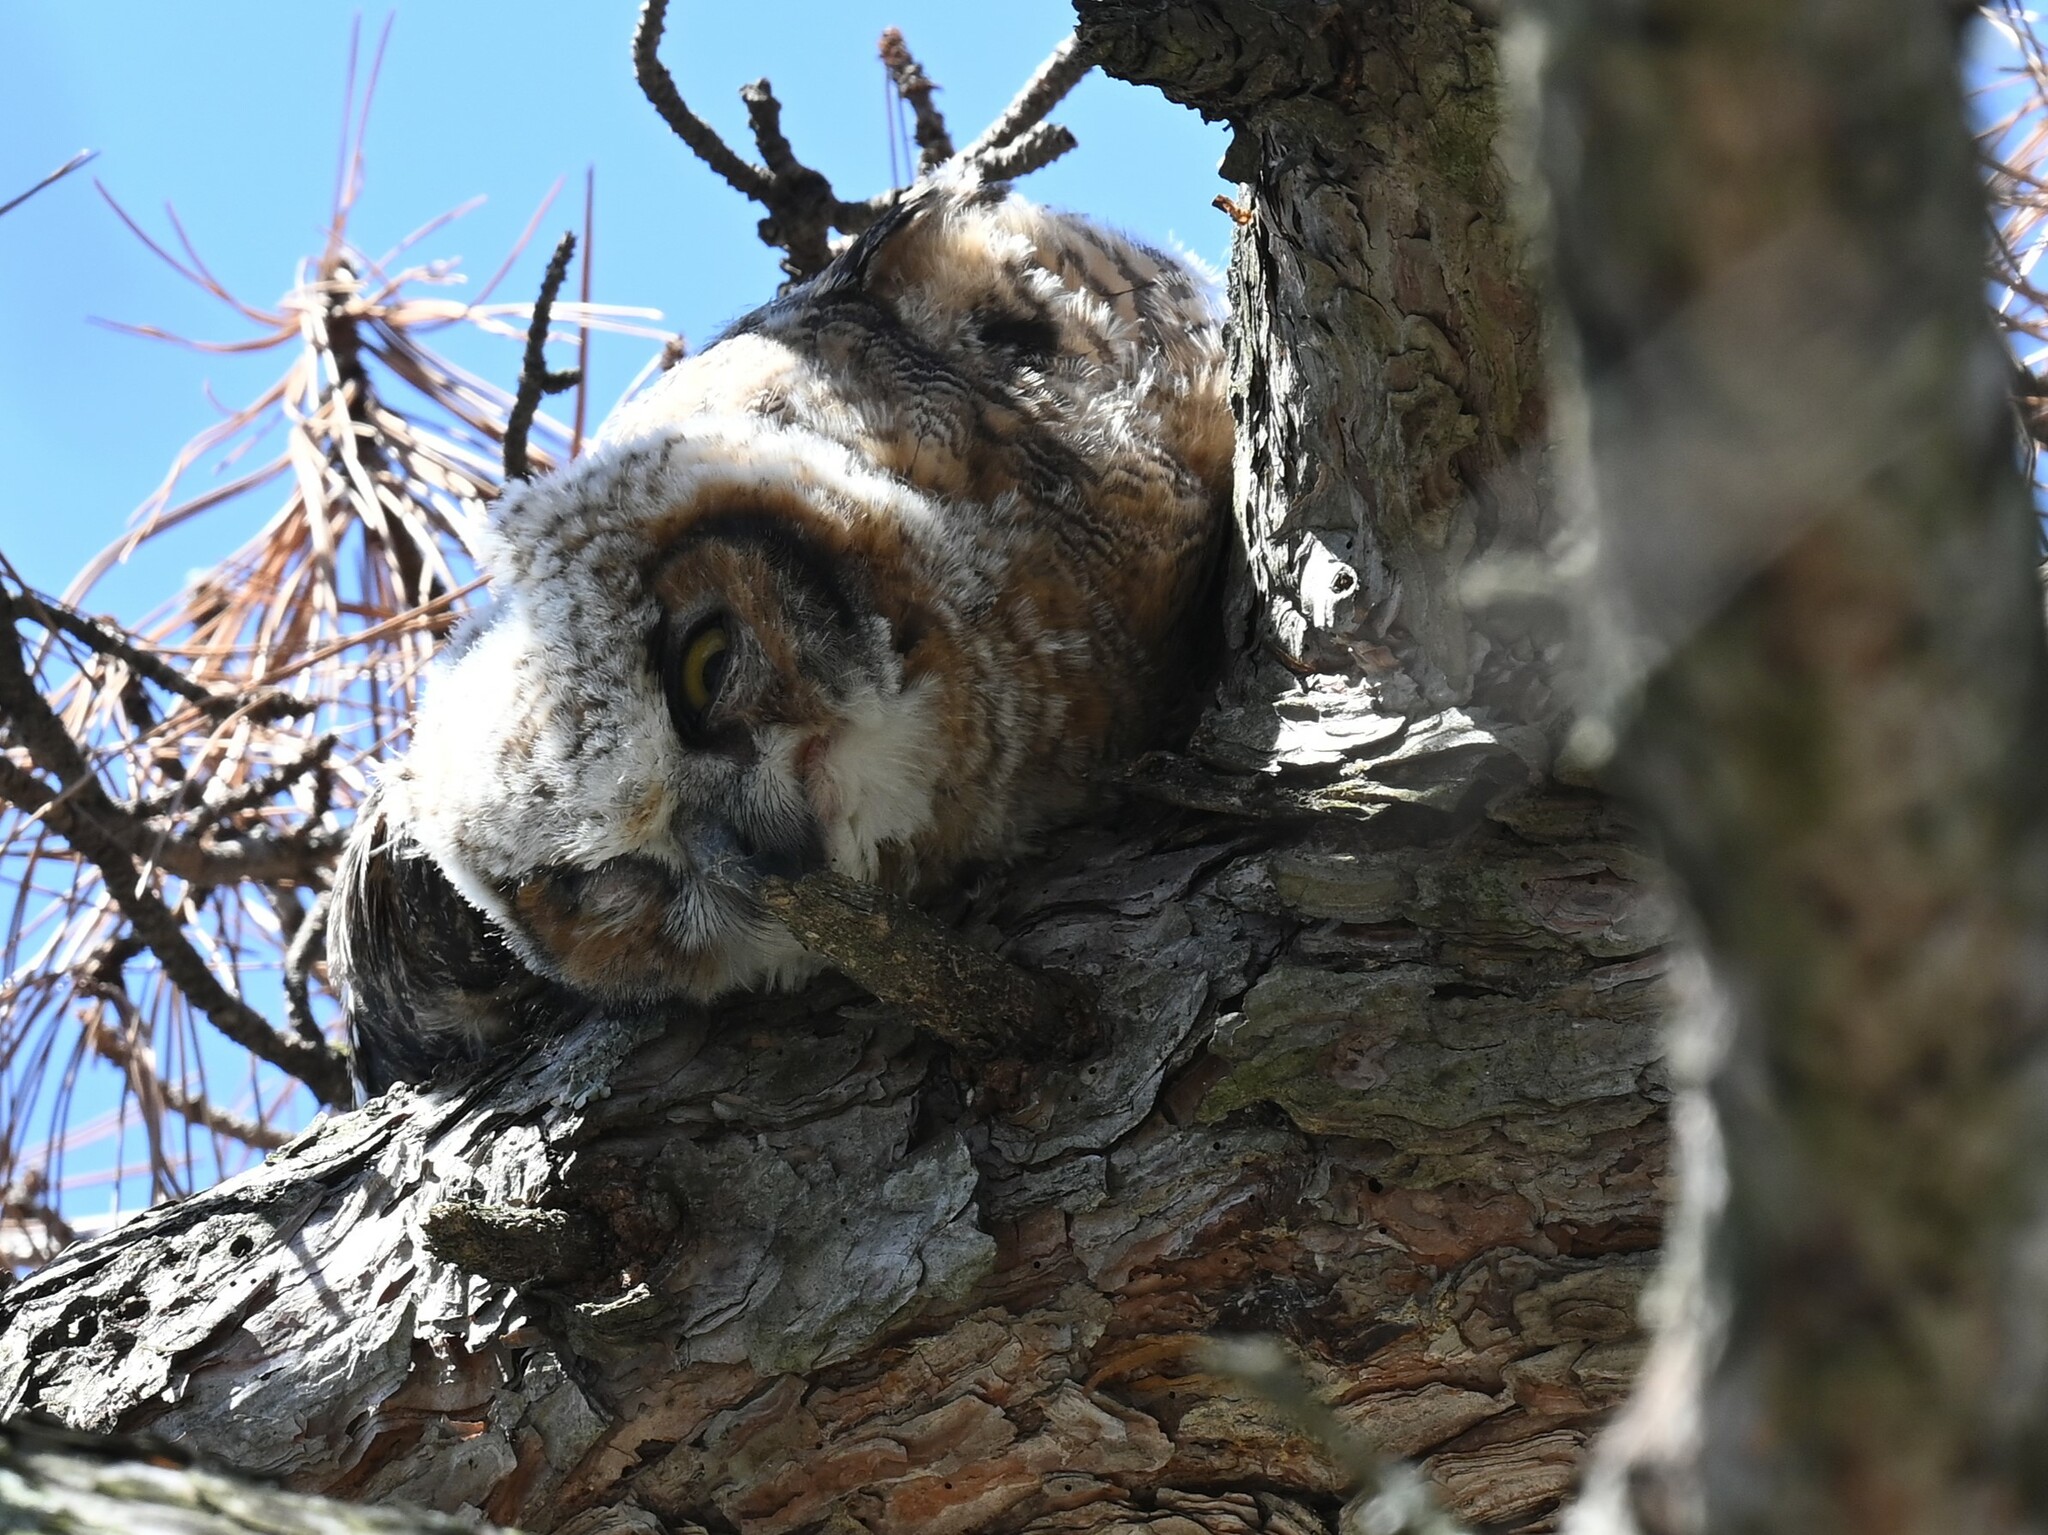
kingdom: Animalia
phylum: Chordata
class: Aves
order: Strigiformes
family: Strigidae
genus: Bubo
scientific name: Bubo virginianus
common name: Great horned owl
